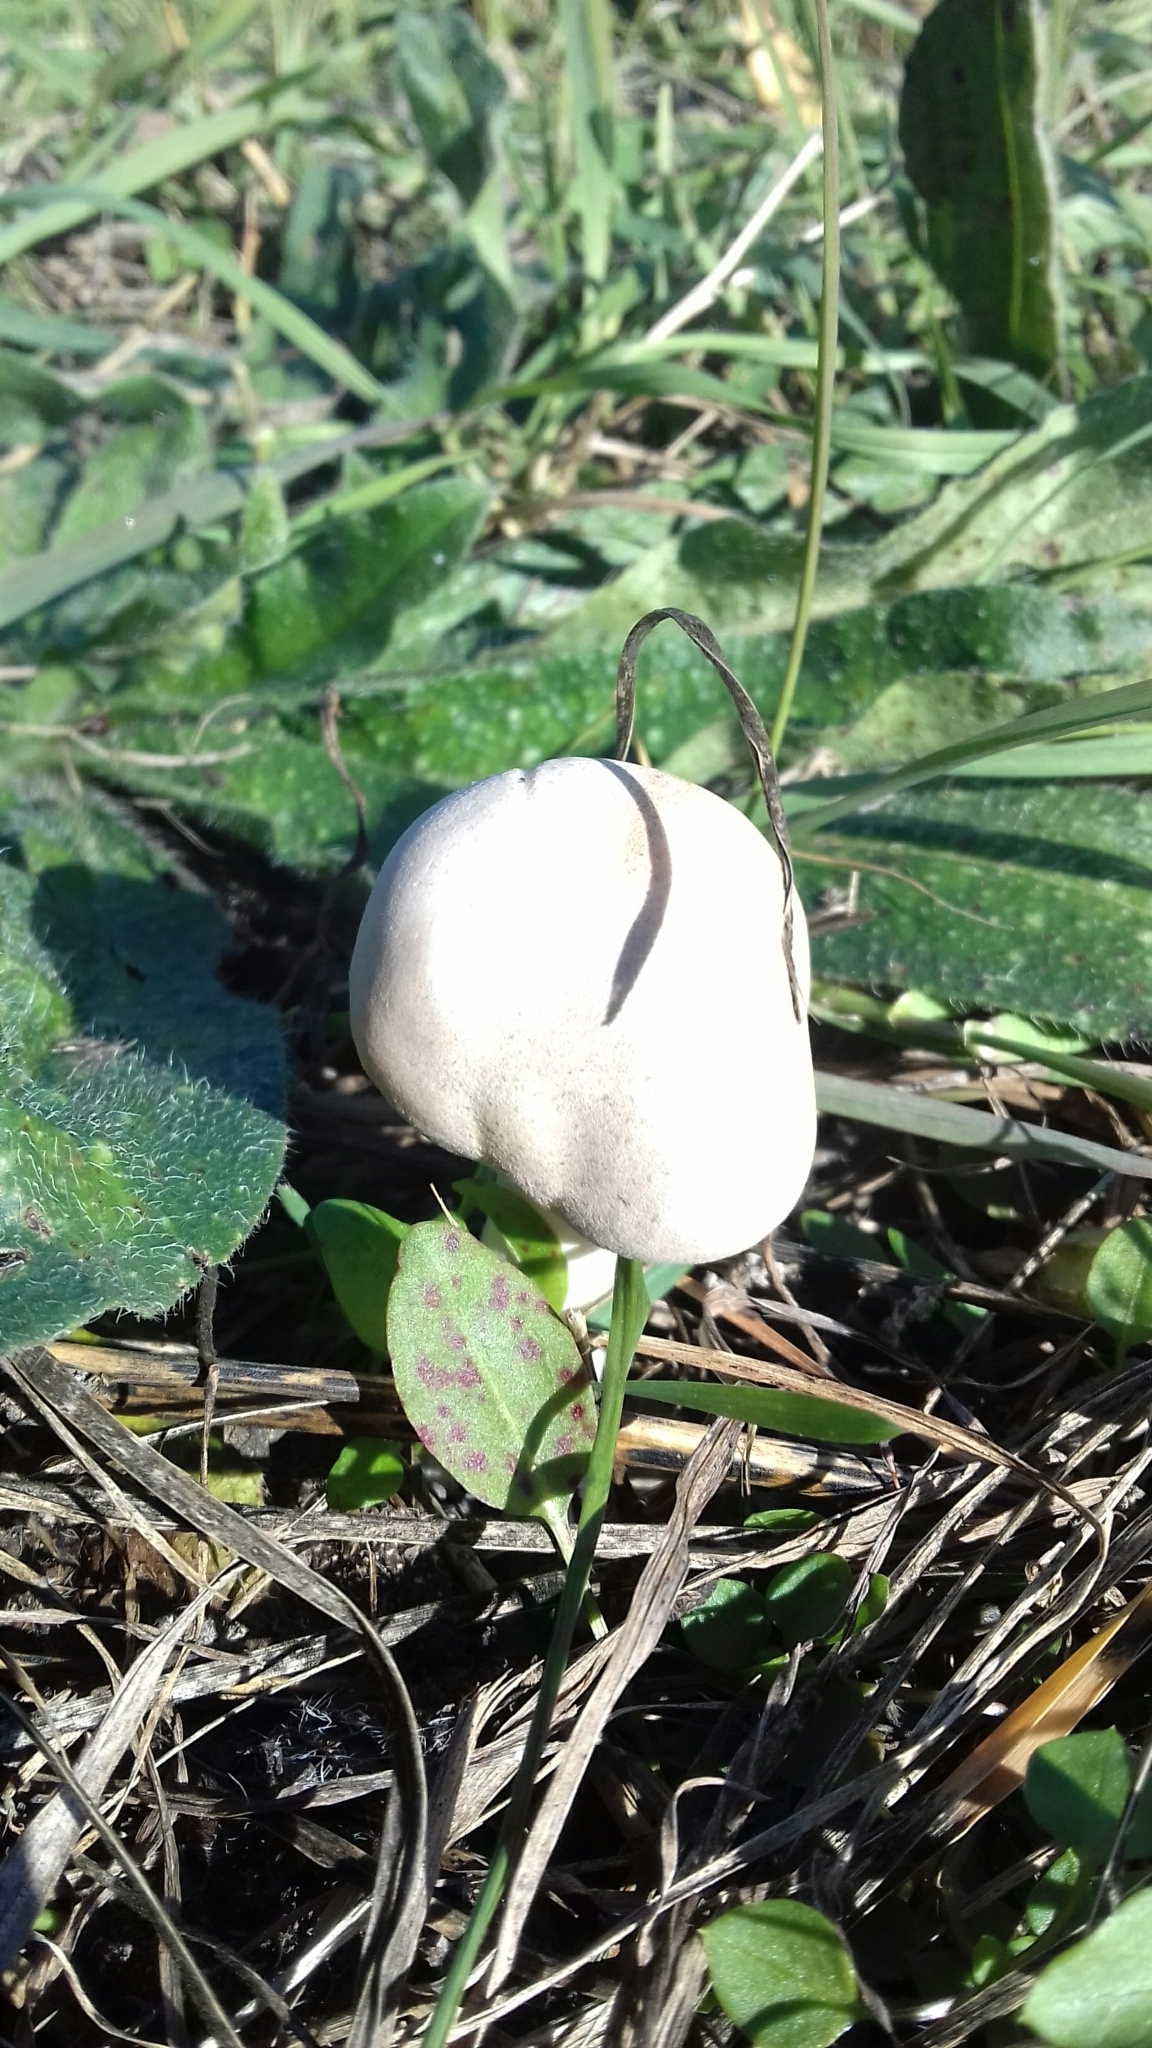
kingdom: Fungi
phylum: Basidiomycota
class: Agaricomycetes
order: Agaricales
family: Agaricaceae
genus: Leucoagaricus
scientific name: Leucoagaricus leucothites
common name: White dapperling
